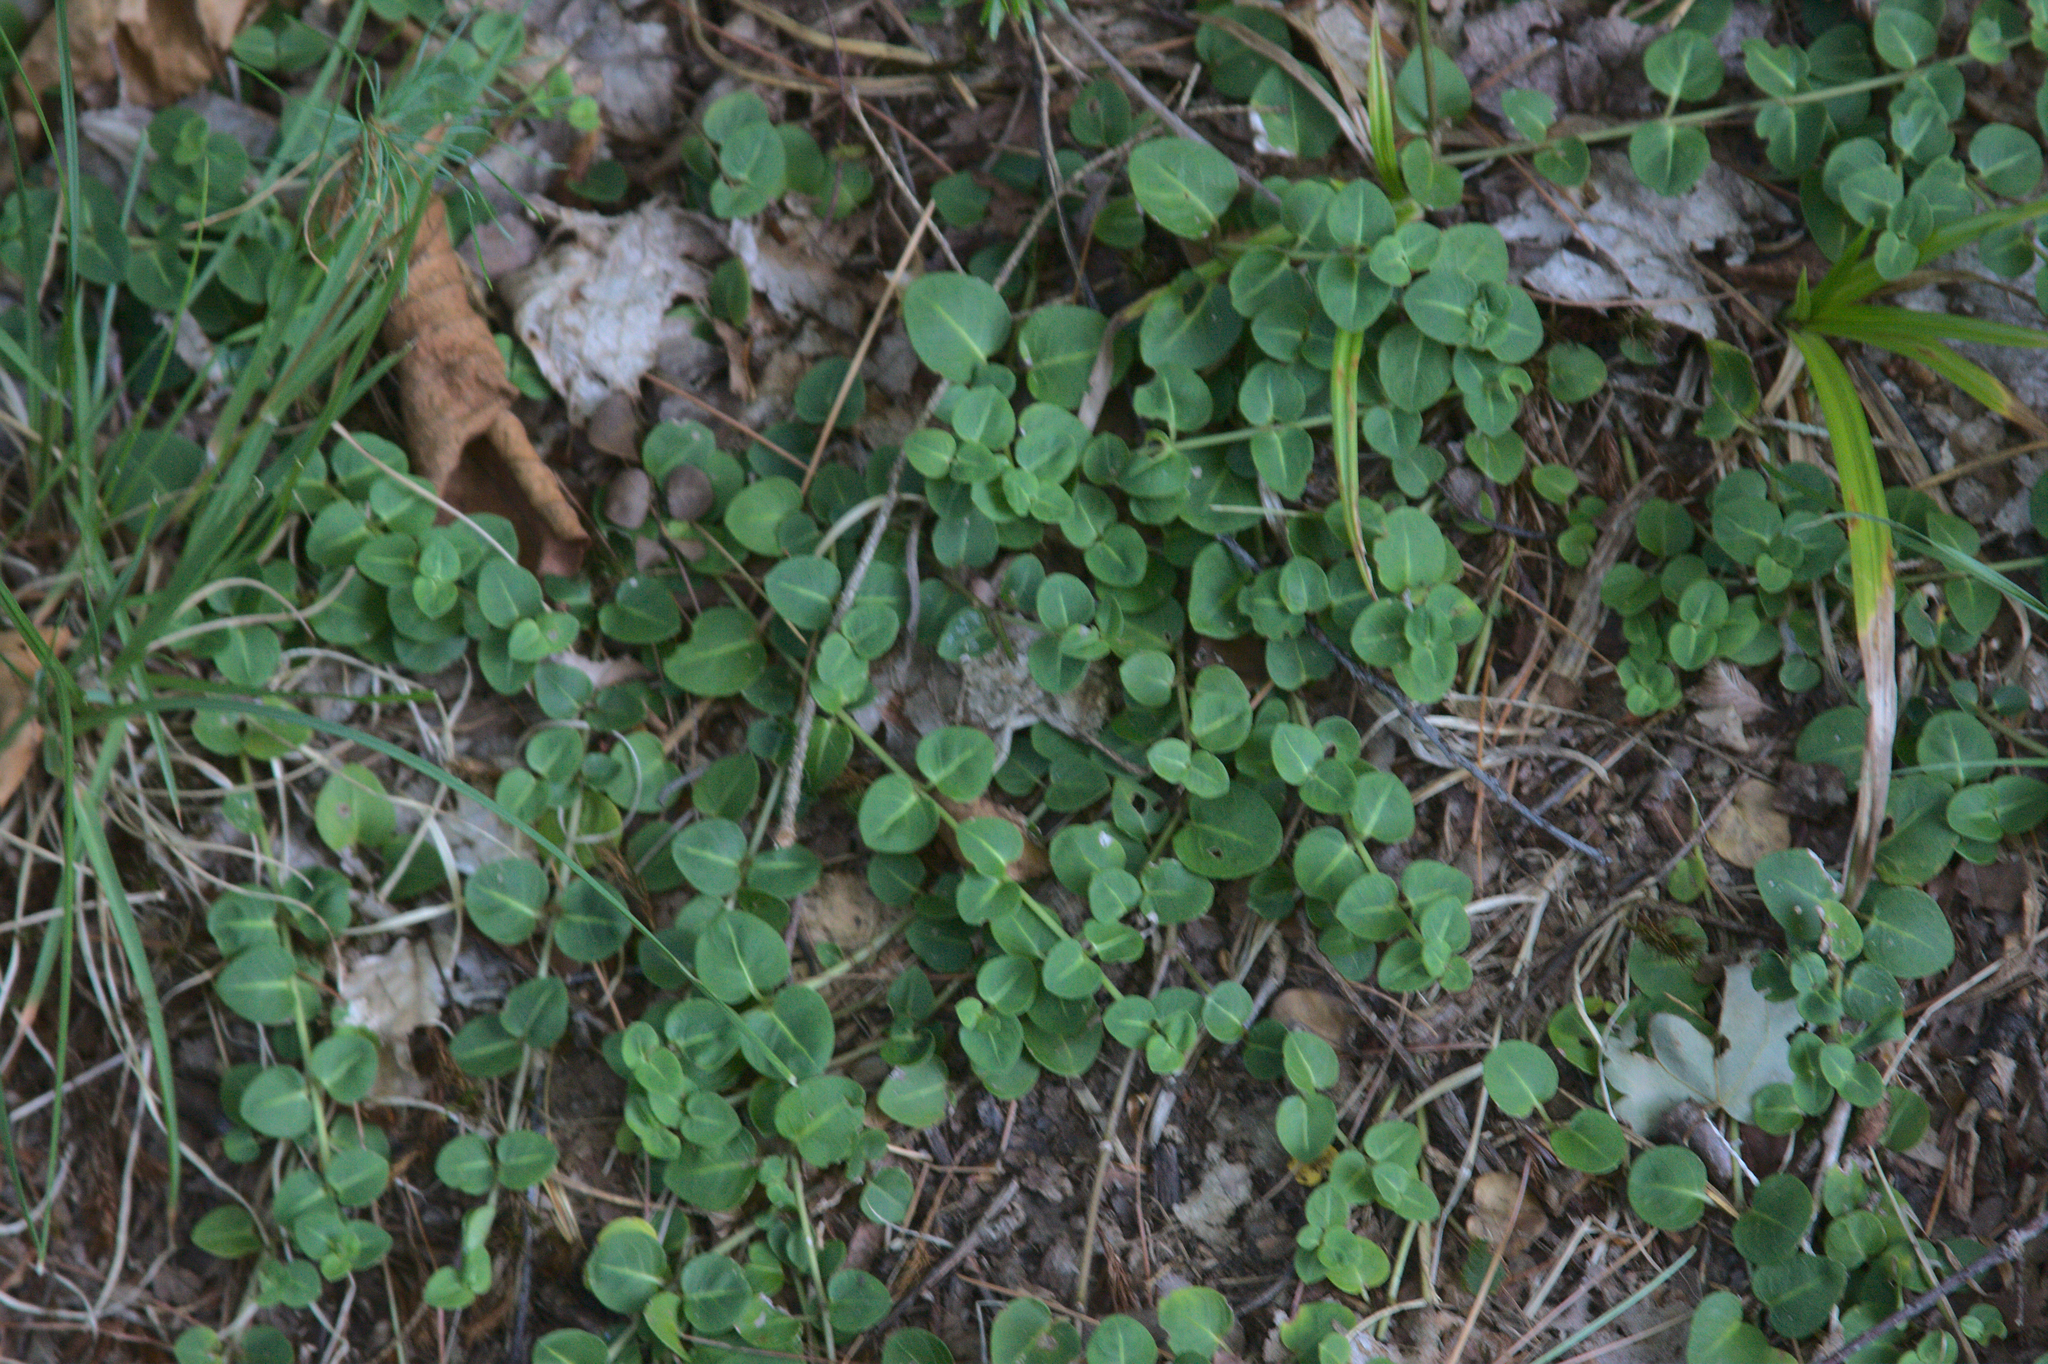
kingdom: Plantae
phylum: Tracheophyta
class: Magnoliopsida
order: Gentianales
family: Rubiaceae
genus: Mitchella
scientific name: Mitchella repens
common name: Partridge-berry
